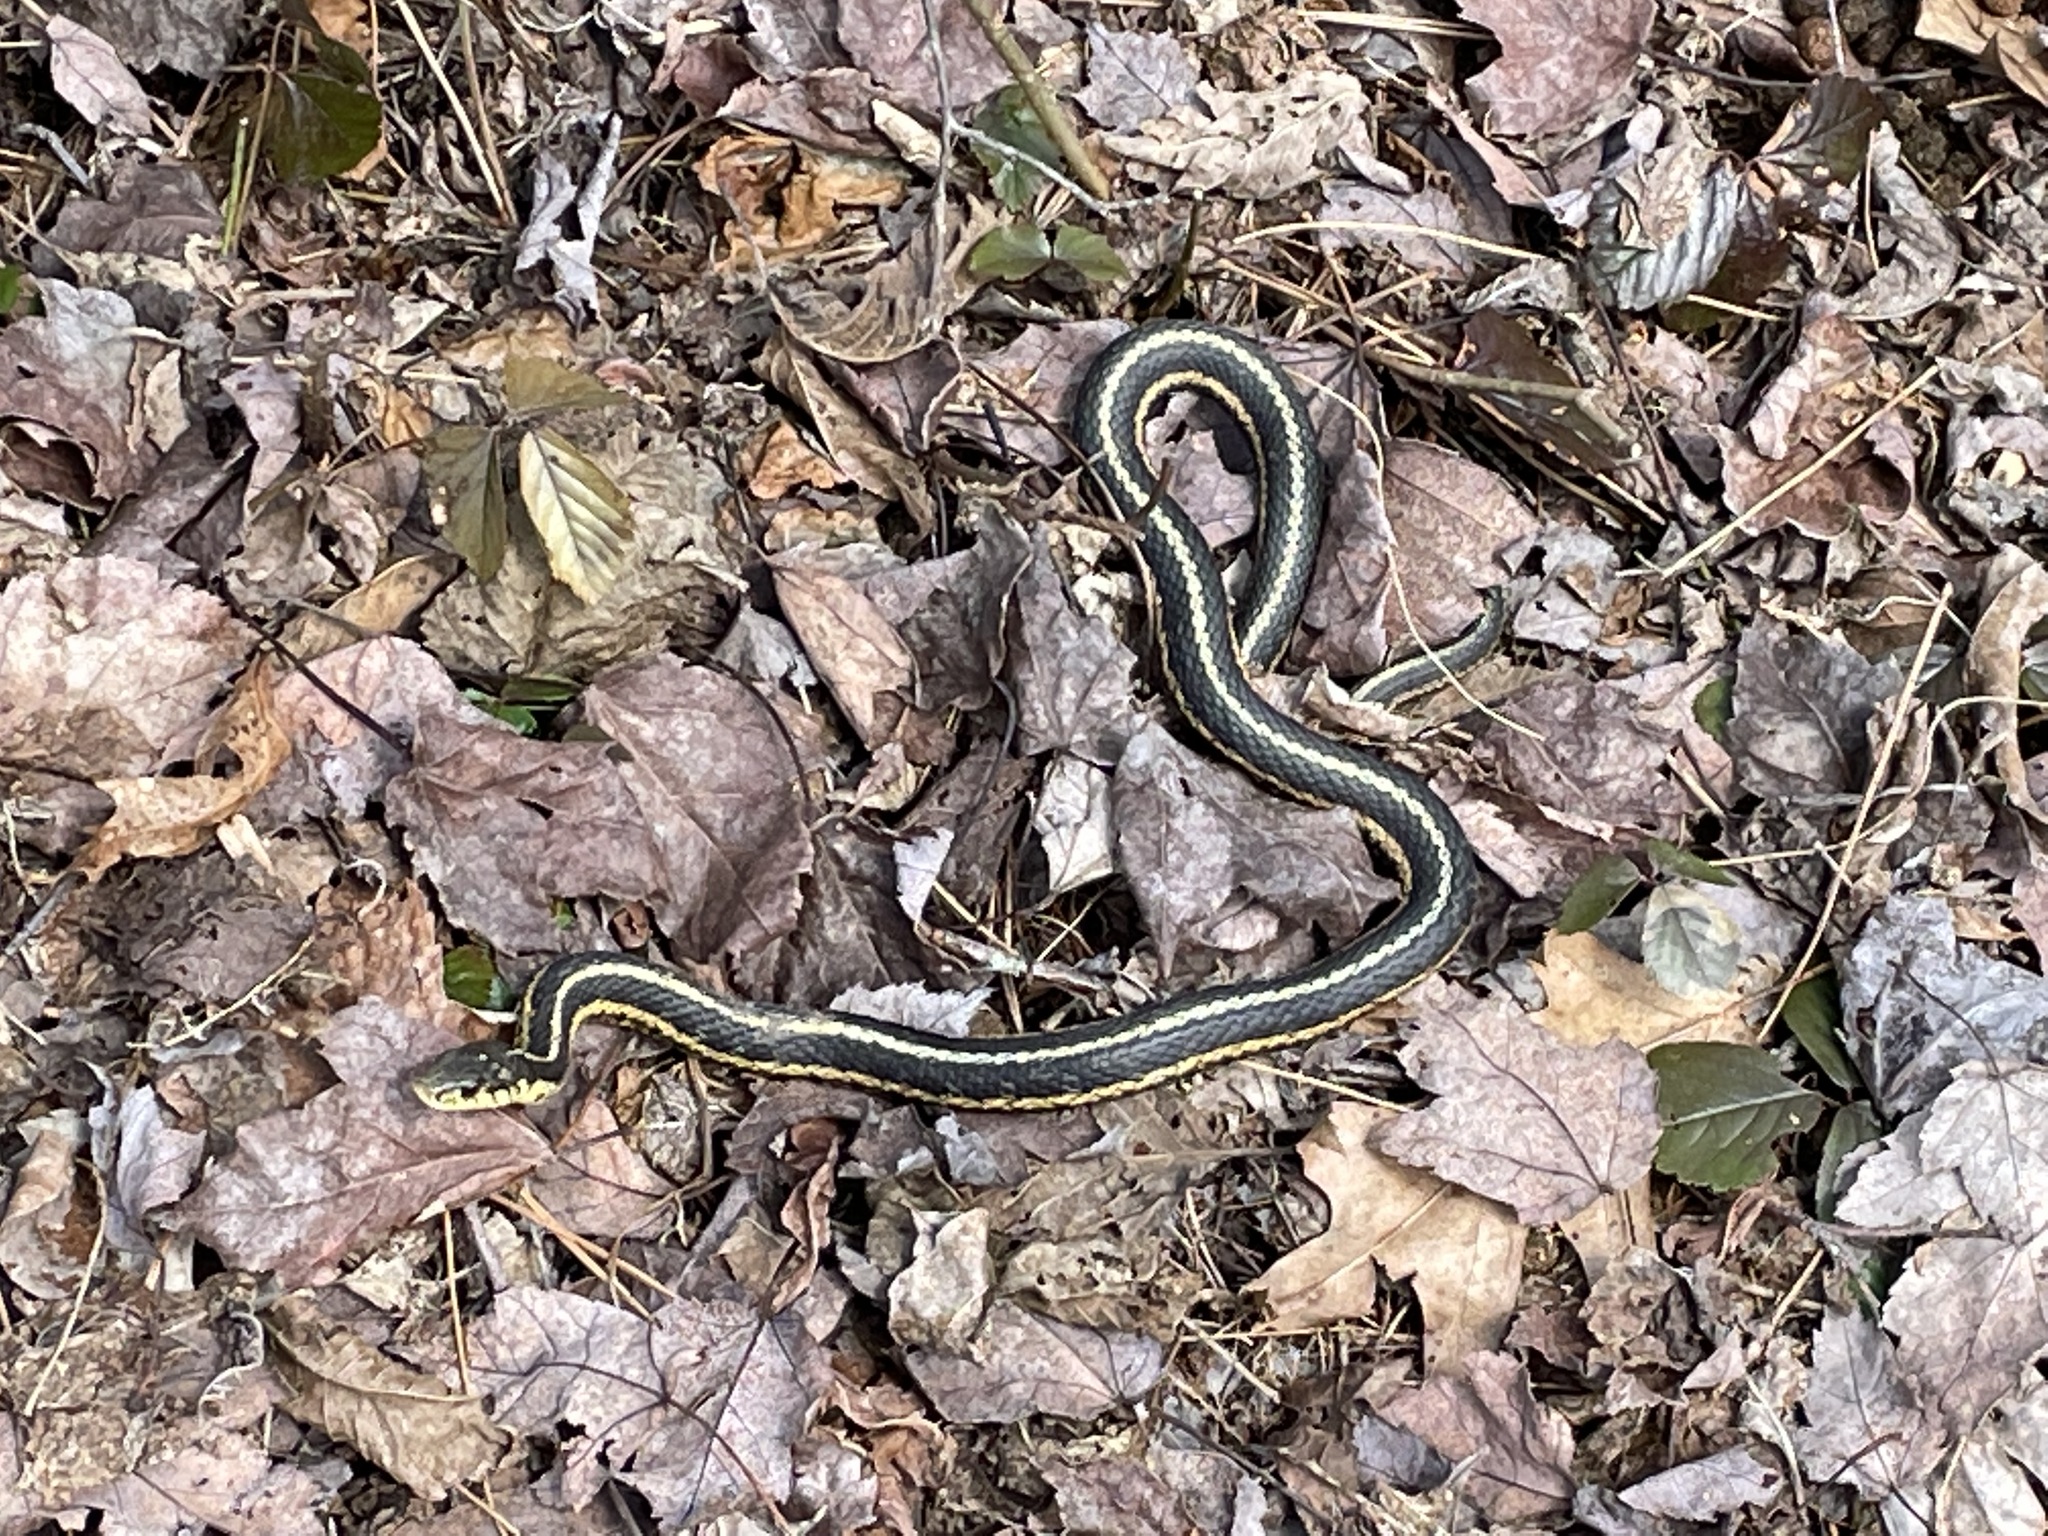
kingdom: Animalia
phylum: Chordata
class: Squamata
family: Colubridae
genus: Thamnophis
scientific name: Thamnophis sirtalis
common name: Common garter snake
